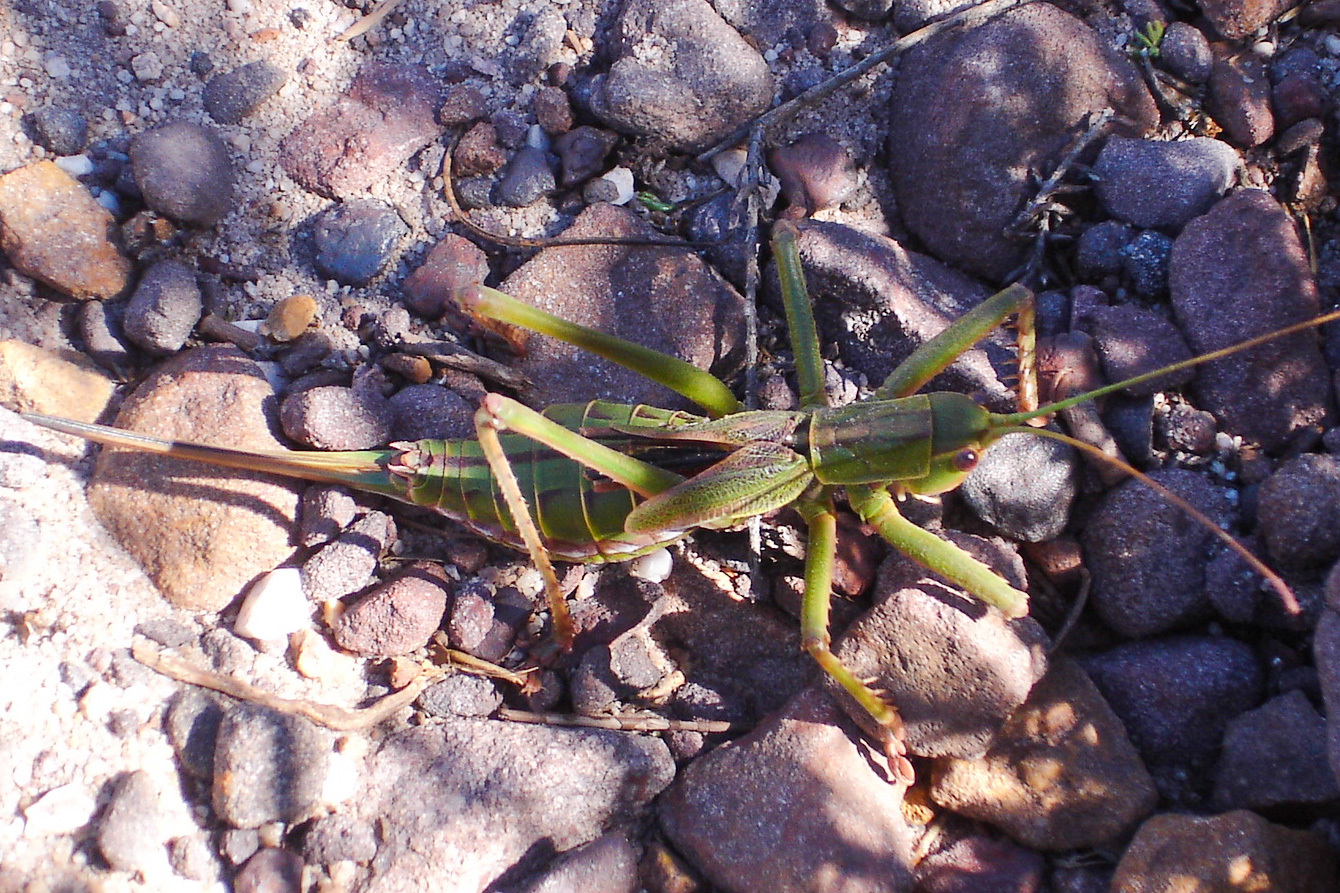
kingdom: Animalia
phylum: Arthropoda
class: Insecta
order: Orthoptera
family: Tettigoniidae
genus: Clonia
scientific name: Clonia melanoptera
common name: Giant black-winged clonia
